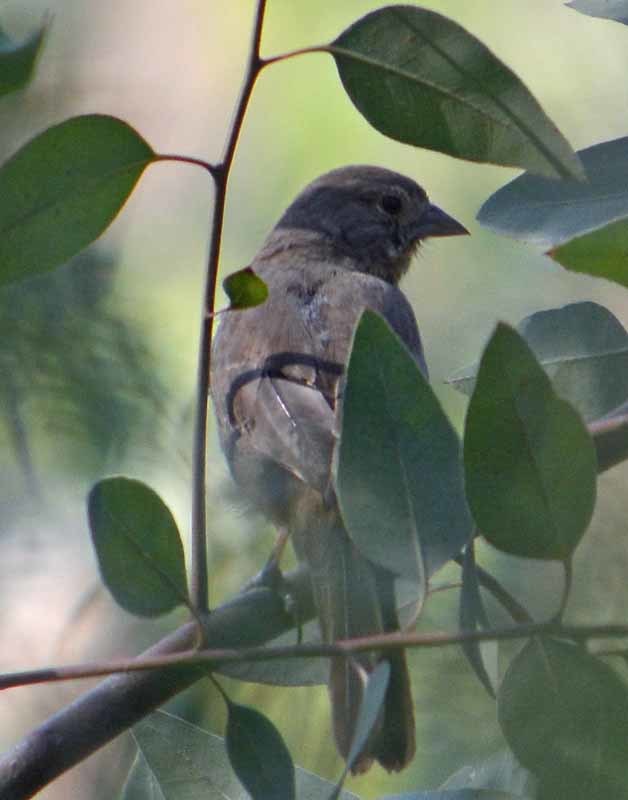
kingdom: Animalia
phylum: Chordata
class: Aves
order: Passeriformes
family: Passerellidae
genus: Melozone
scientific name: Melozone fusca
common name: Canyon towhee
